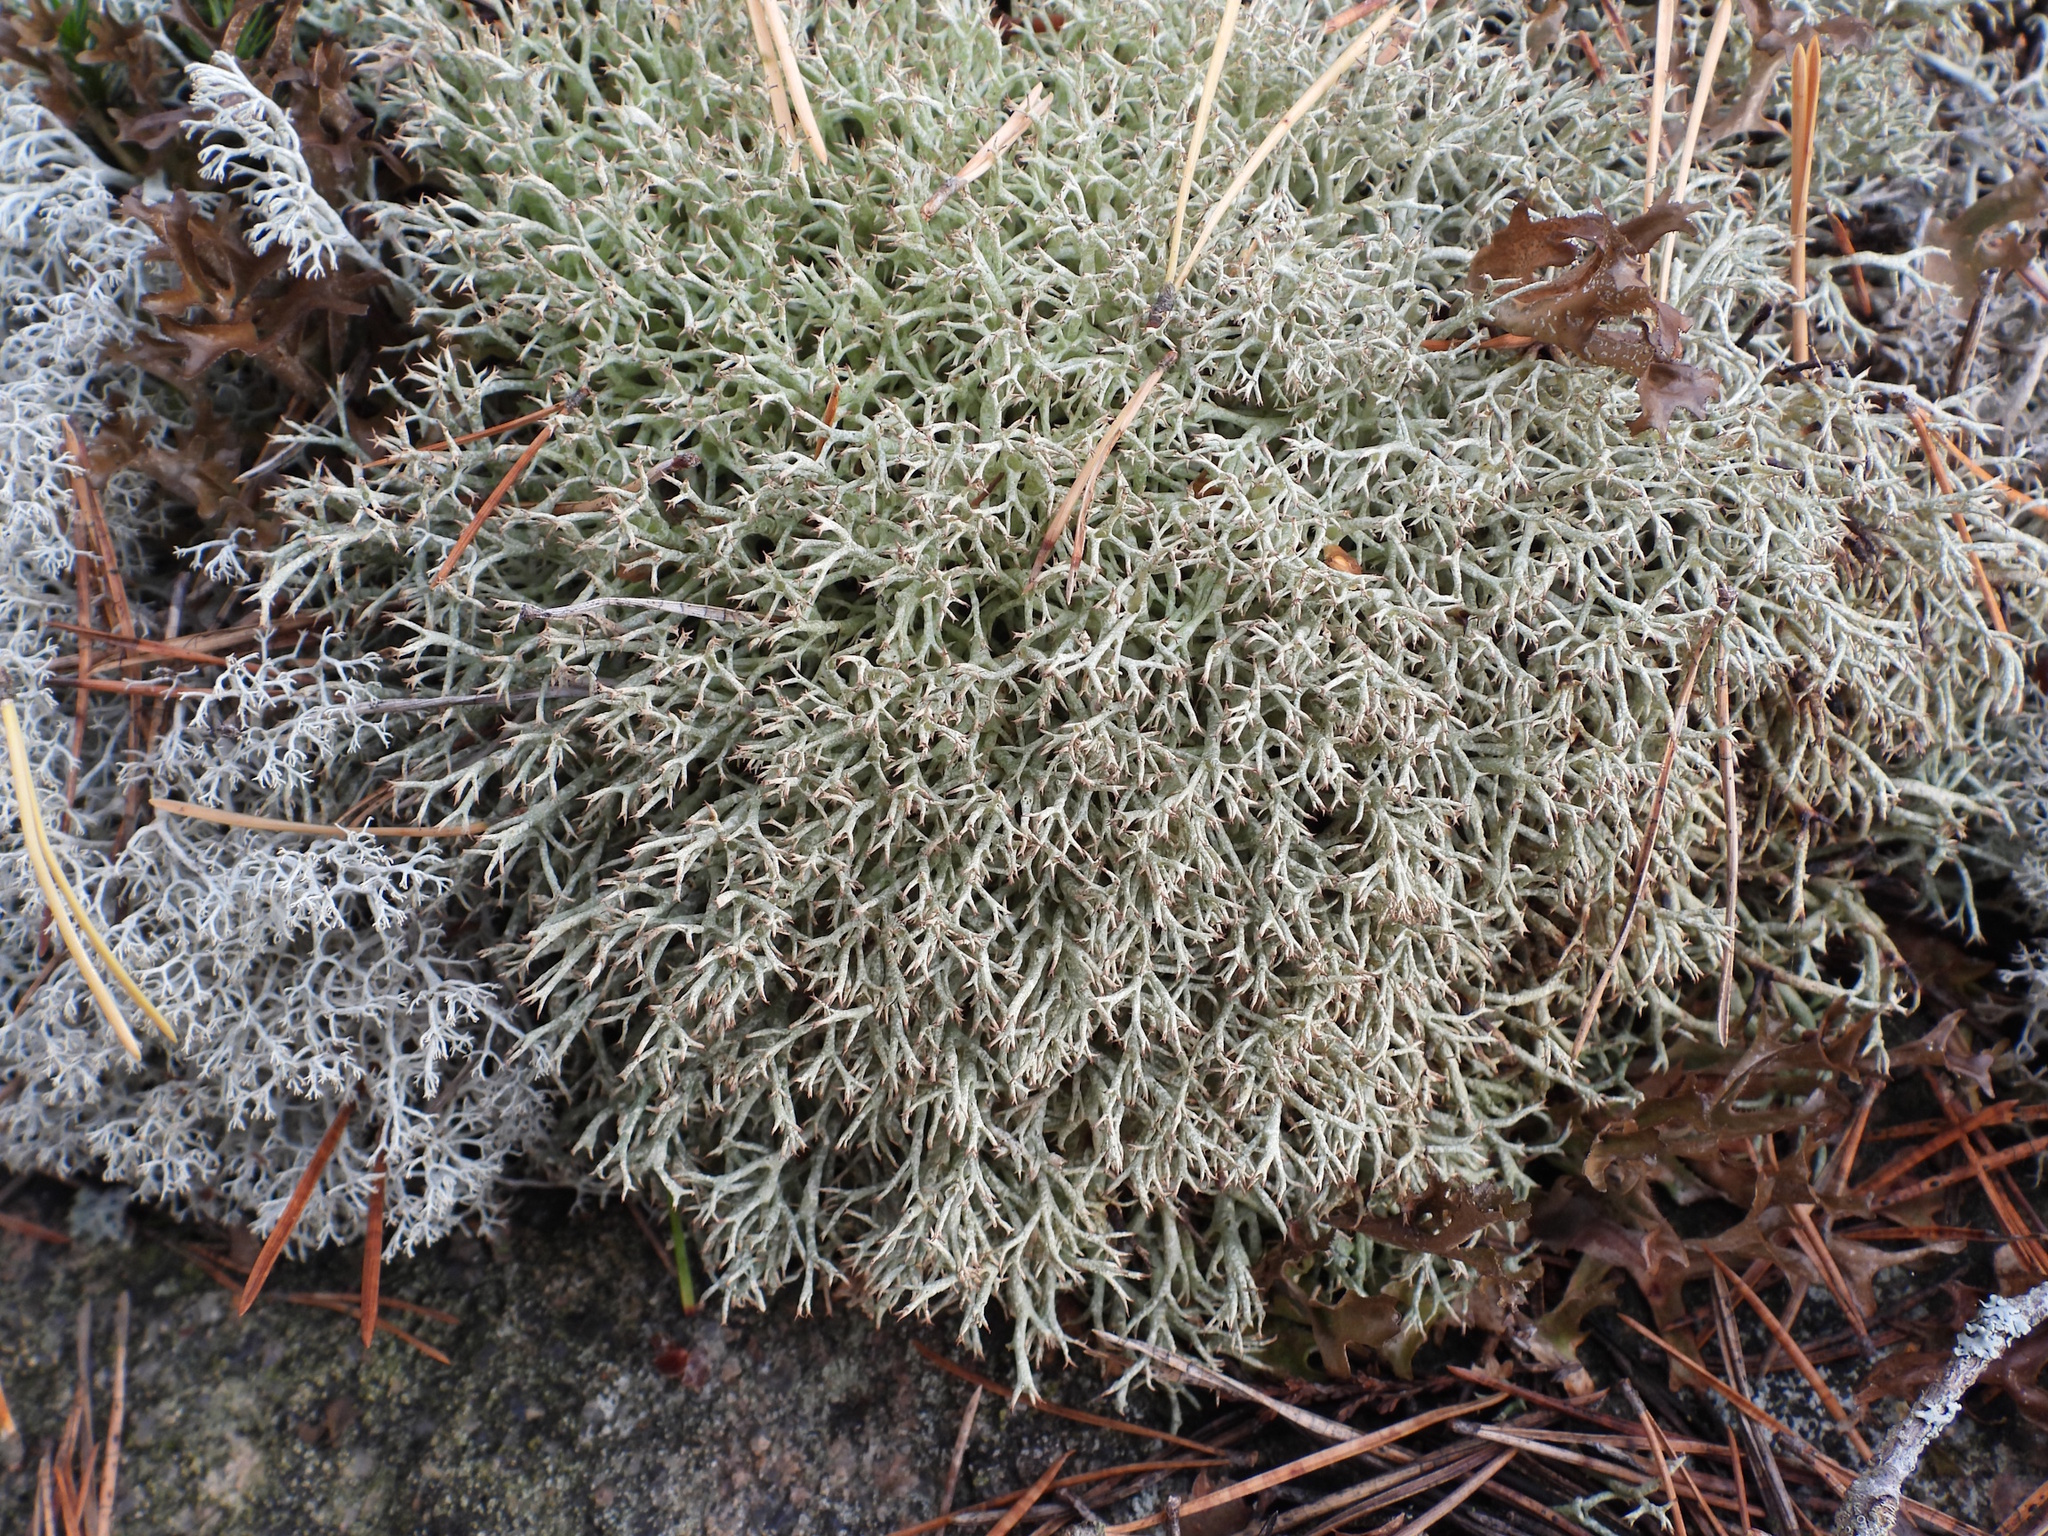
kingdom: Fungi
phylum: Ascomycota
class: Lecanoromycetes
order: Lecanorales
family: Cladoniaceae
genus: Cladonia
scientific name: Cladonia uncialis
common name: Thorn lichen
